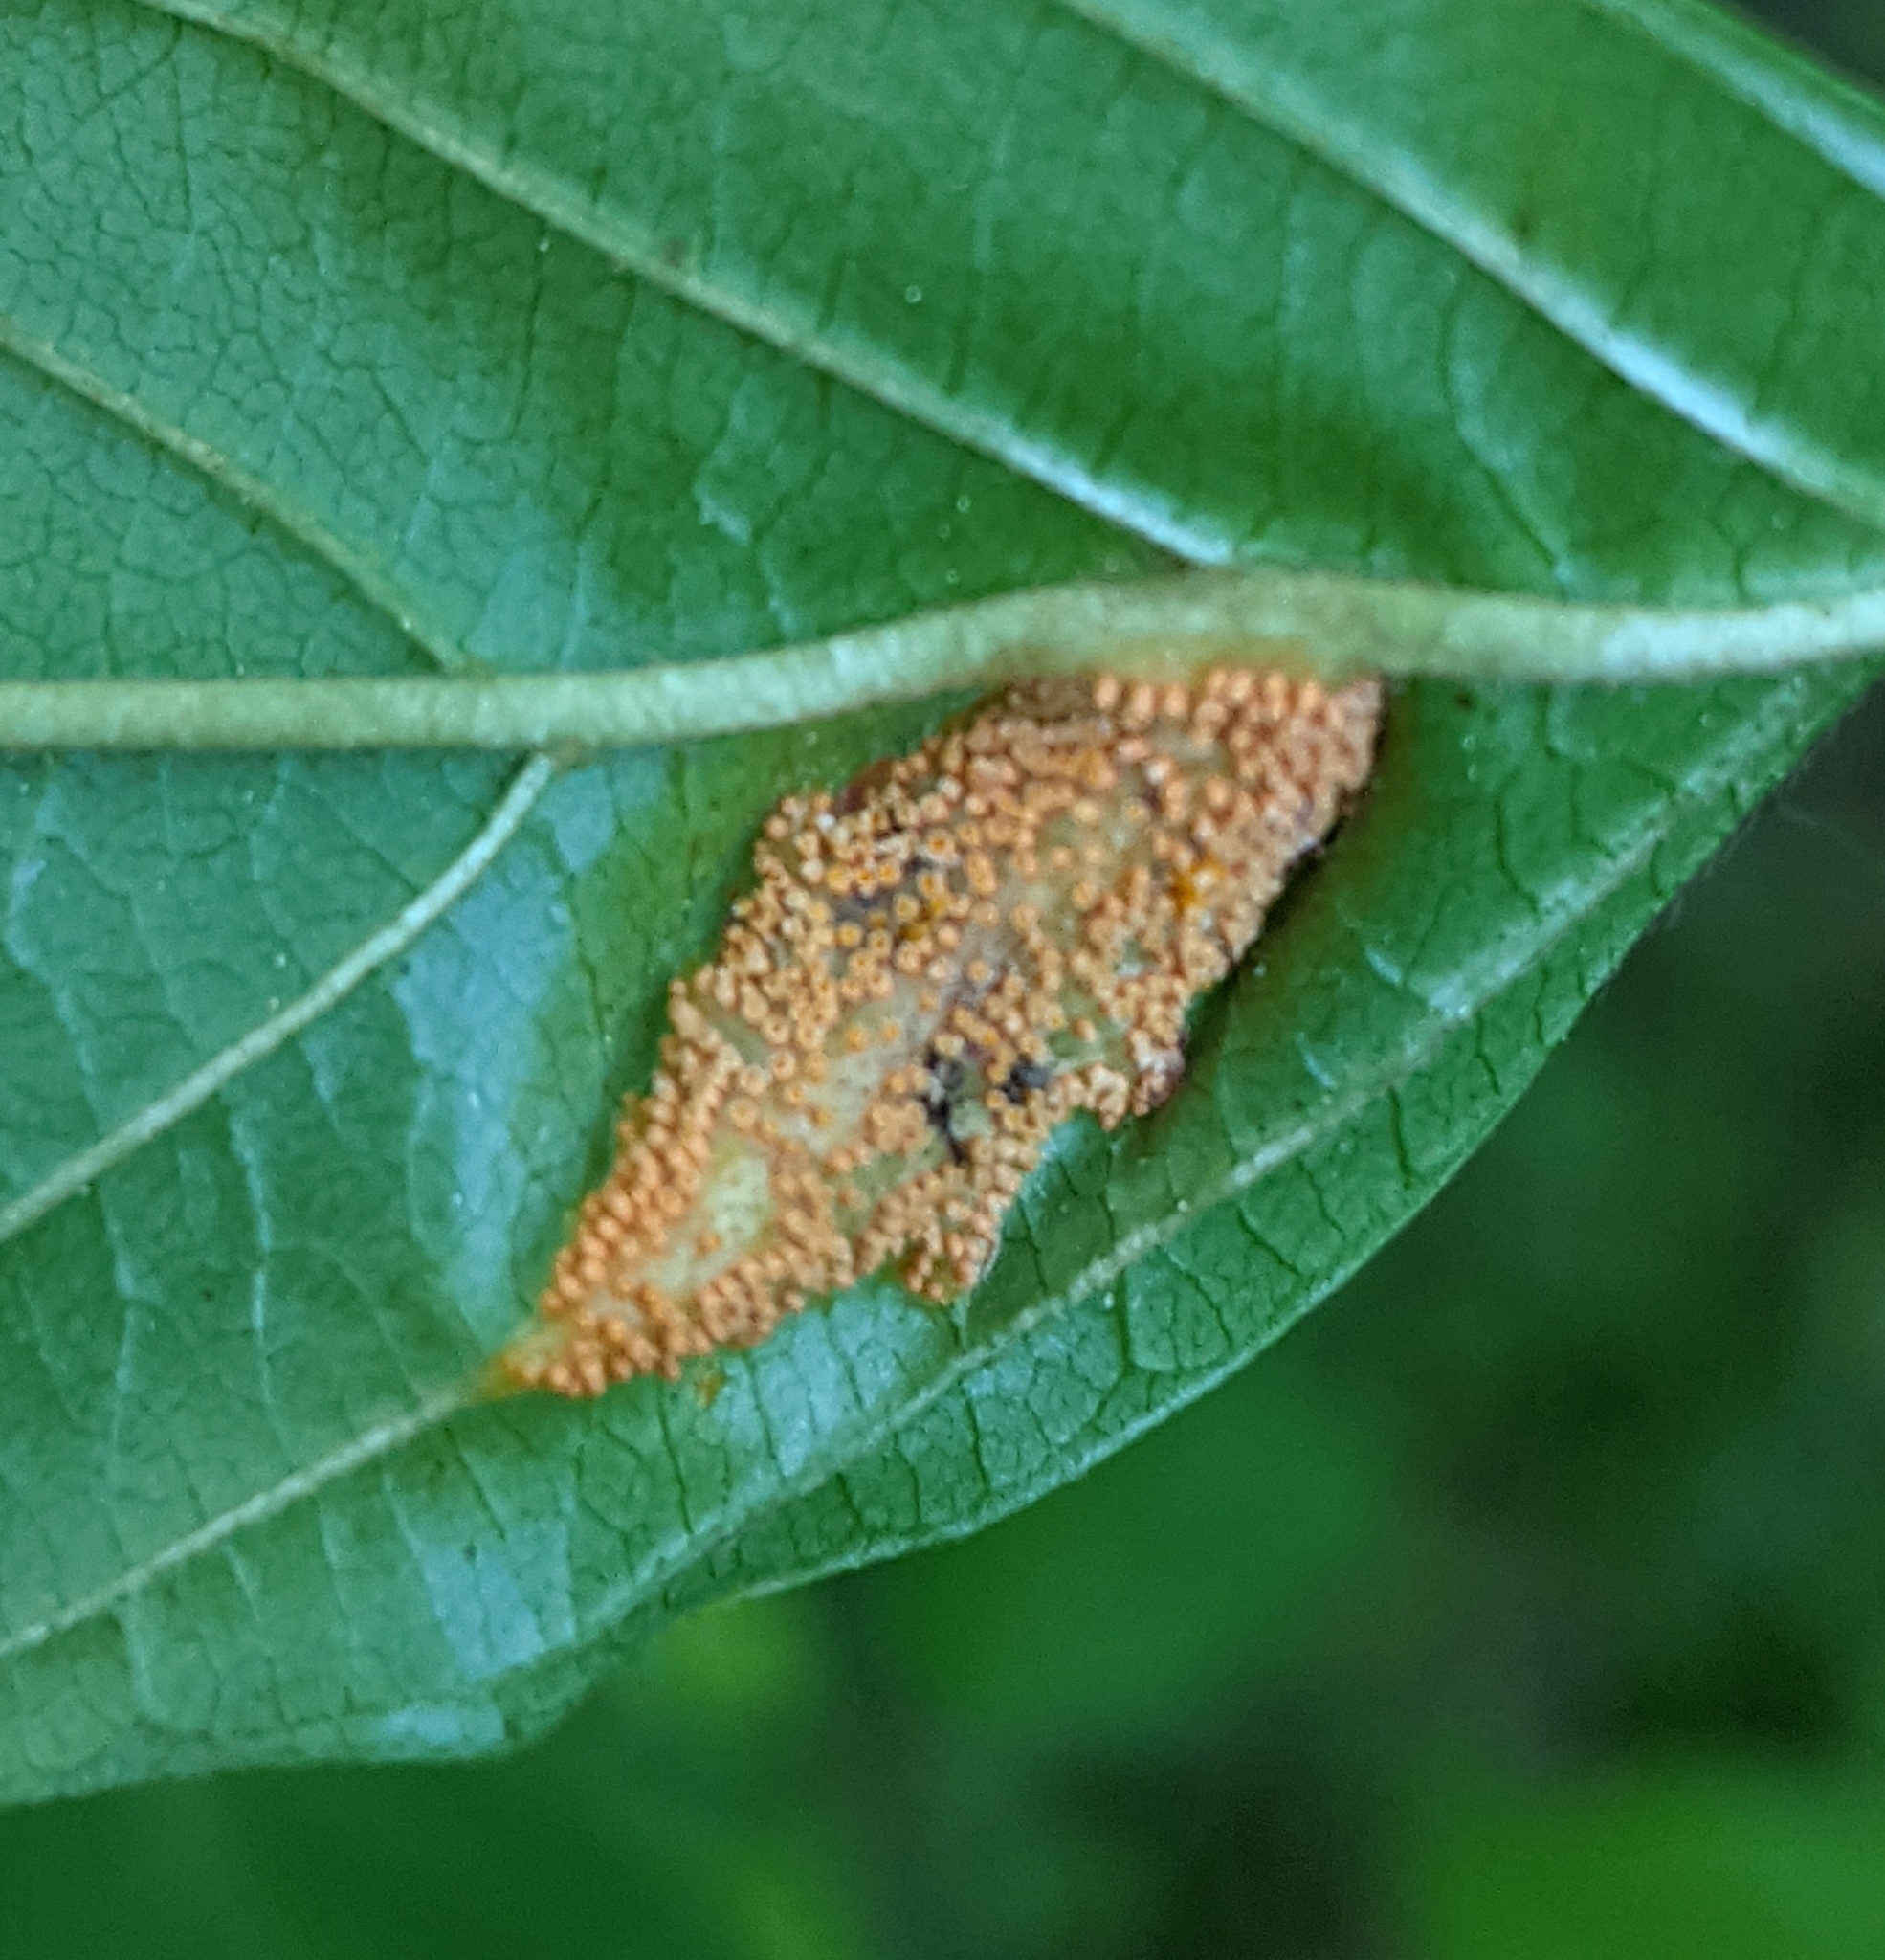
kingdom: Fungi
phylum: Basidiomycota
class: Pucciniomycetes
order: Pucciniales
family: Pucciniaceae
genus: Puccinia
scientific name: Puccinia coronata
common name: Crown rust
